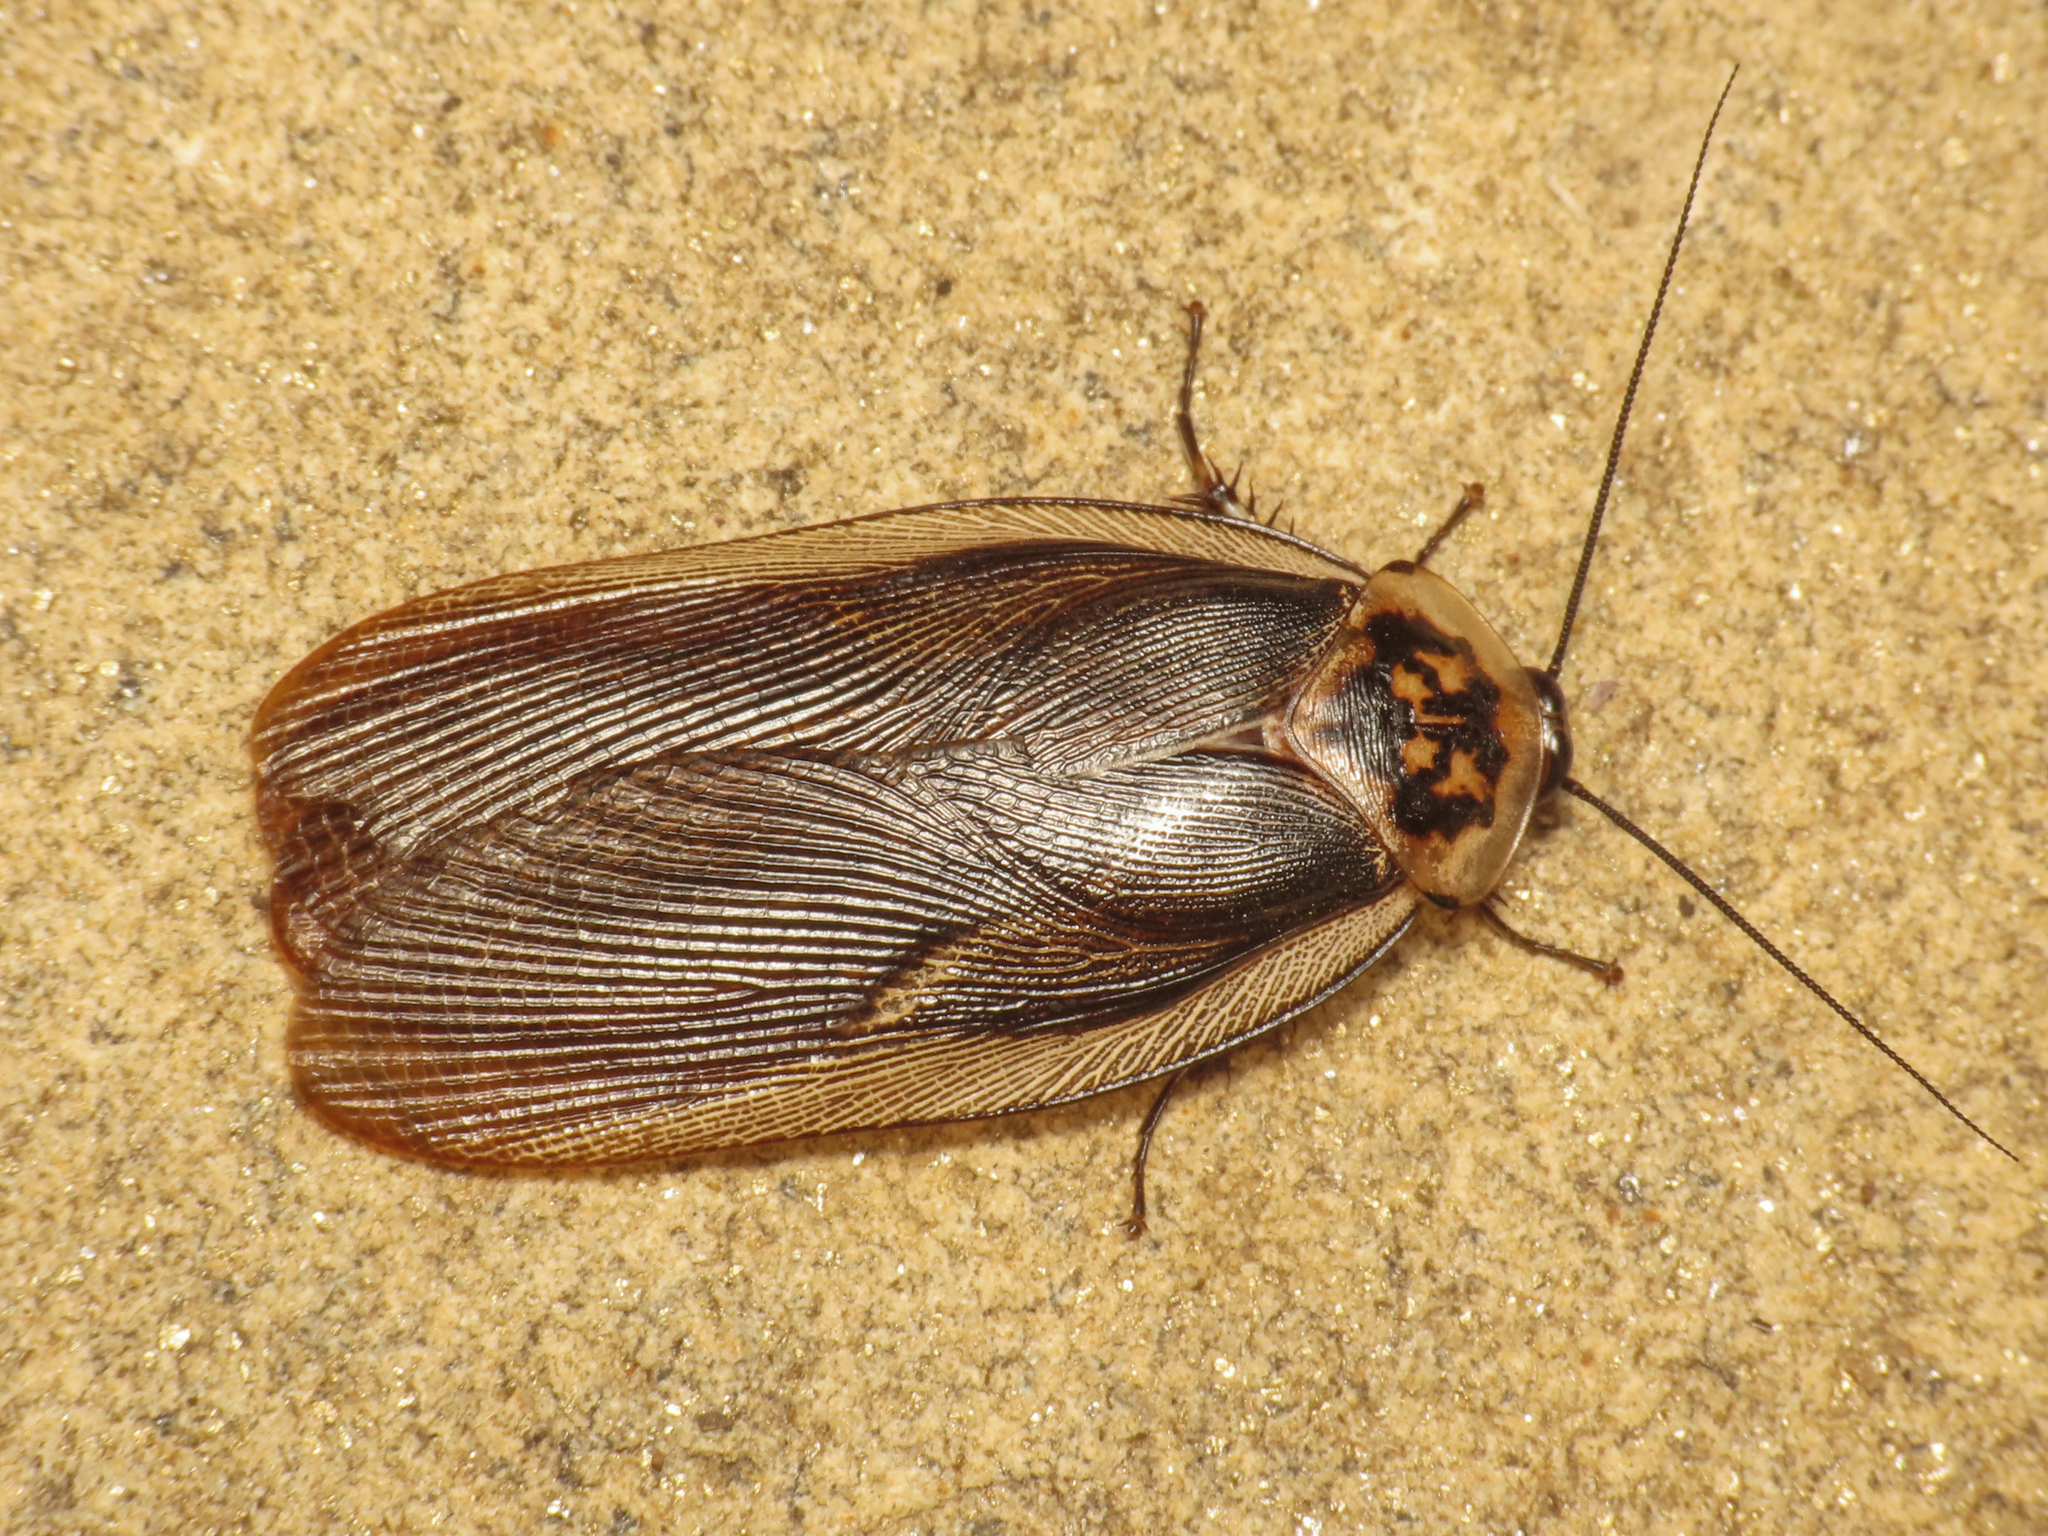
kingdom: Animalia
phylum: Arthropoda
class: Insecta
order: Blattodea
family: Blaberidae
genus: Gynopeltis
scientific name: Gynopeltis cryptospila
